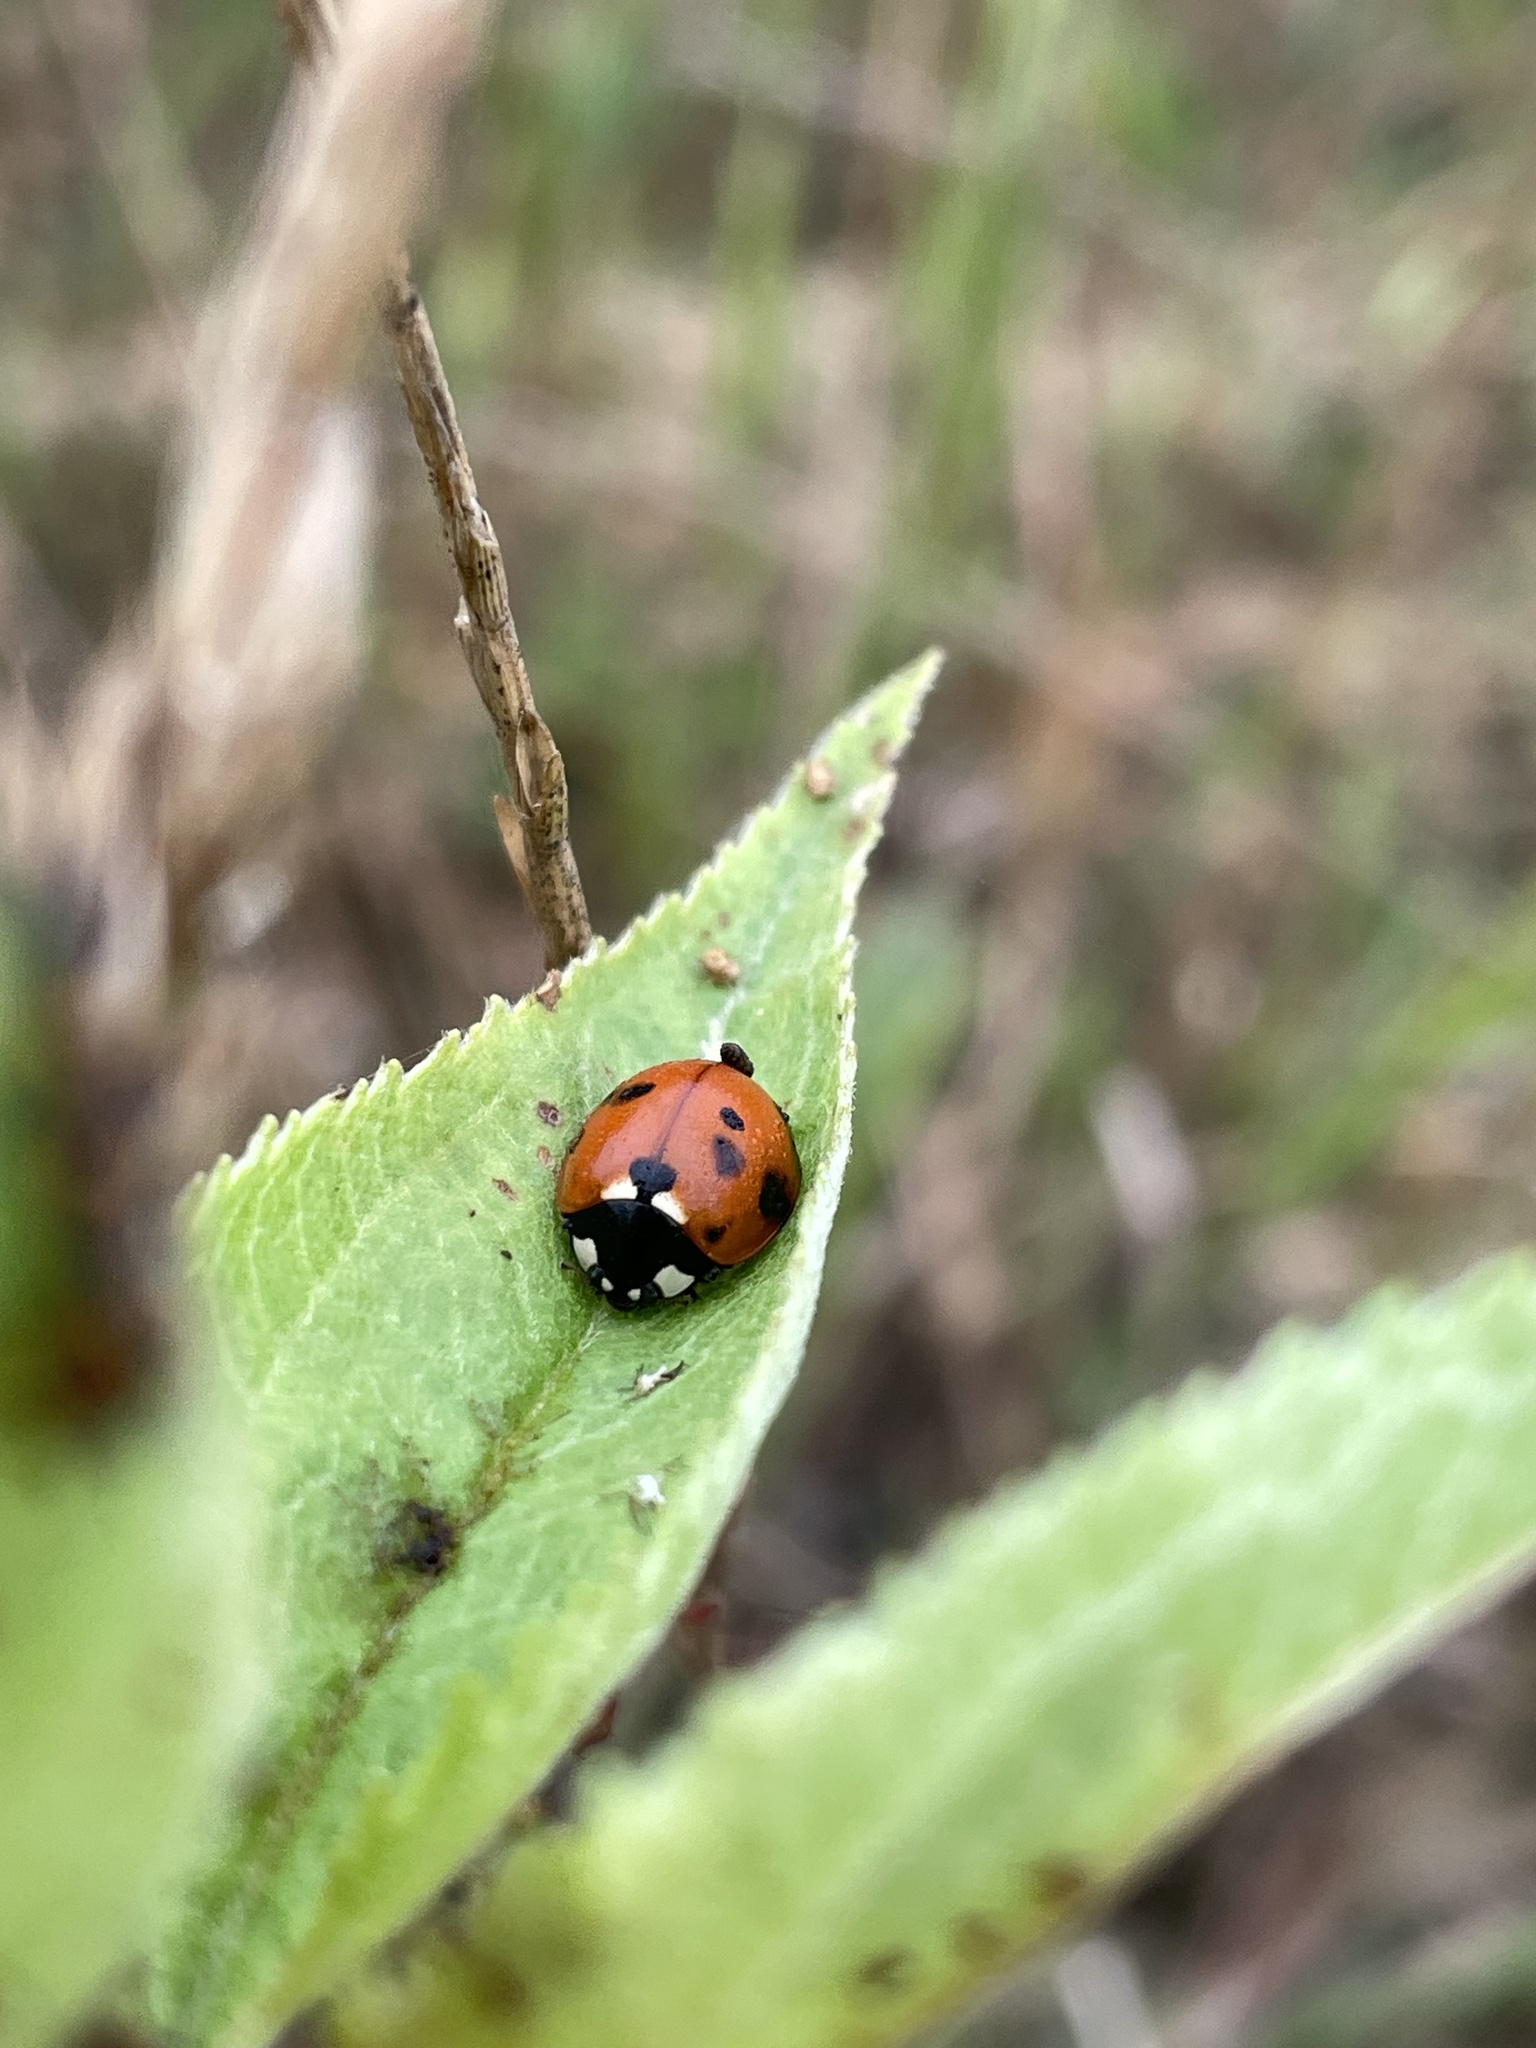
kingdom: Animalia
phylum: Arthropoda
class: Insecta
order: Coleoptera
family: Coccinellidae
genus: Coccinella
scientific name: Coccinella septempunctata
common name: Sevenspotted lady beetle
